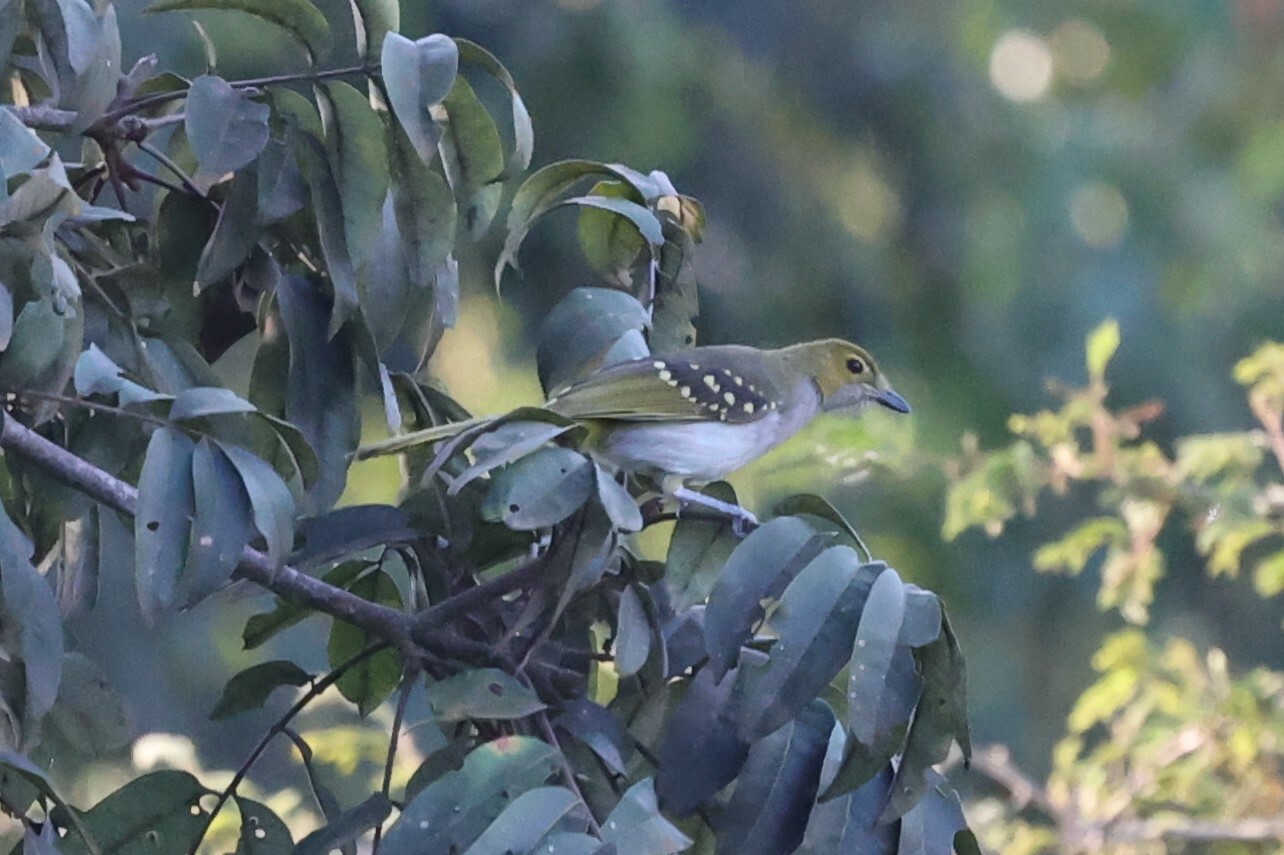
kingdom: Animalia
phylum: Chordata
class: Aves
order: Passeriformes
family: Nicatoridae
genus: Nicator
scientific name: Nicator chloris
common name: Western nicator
